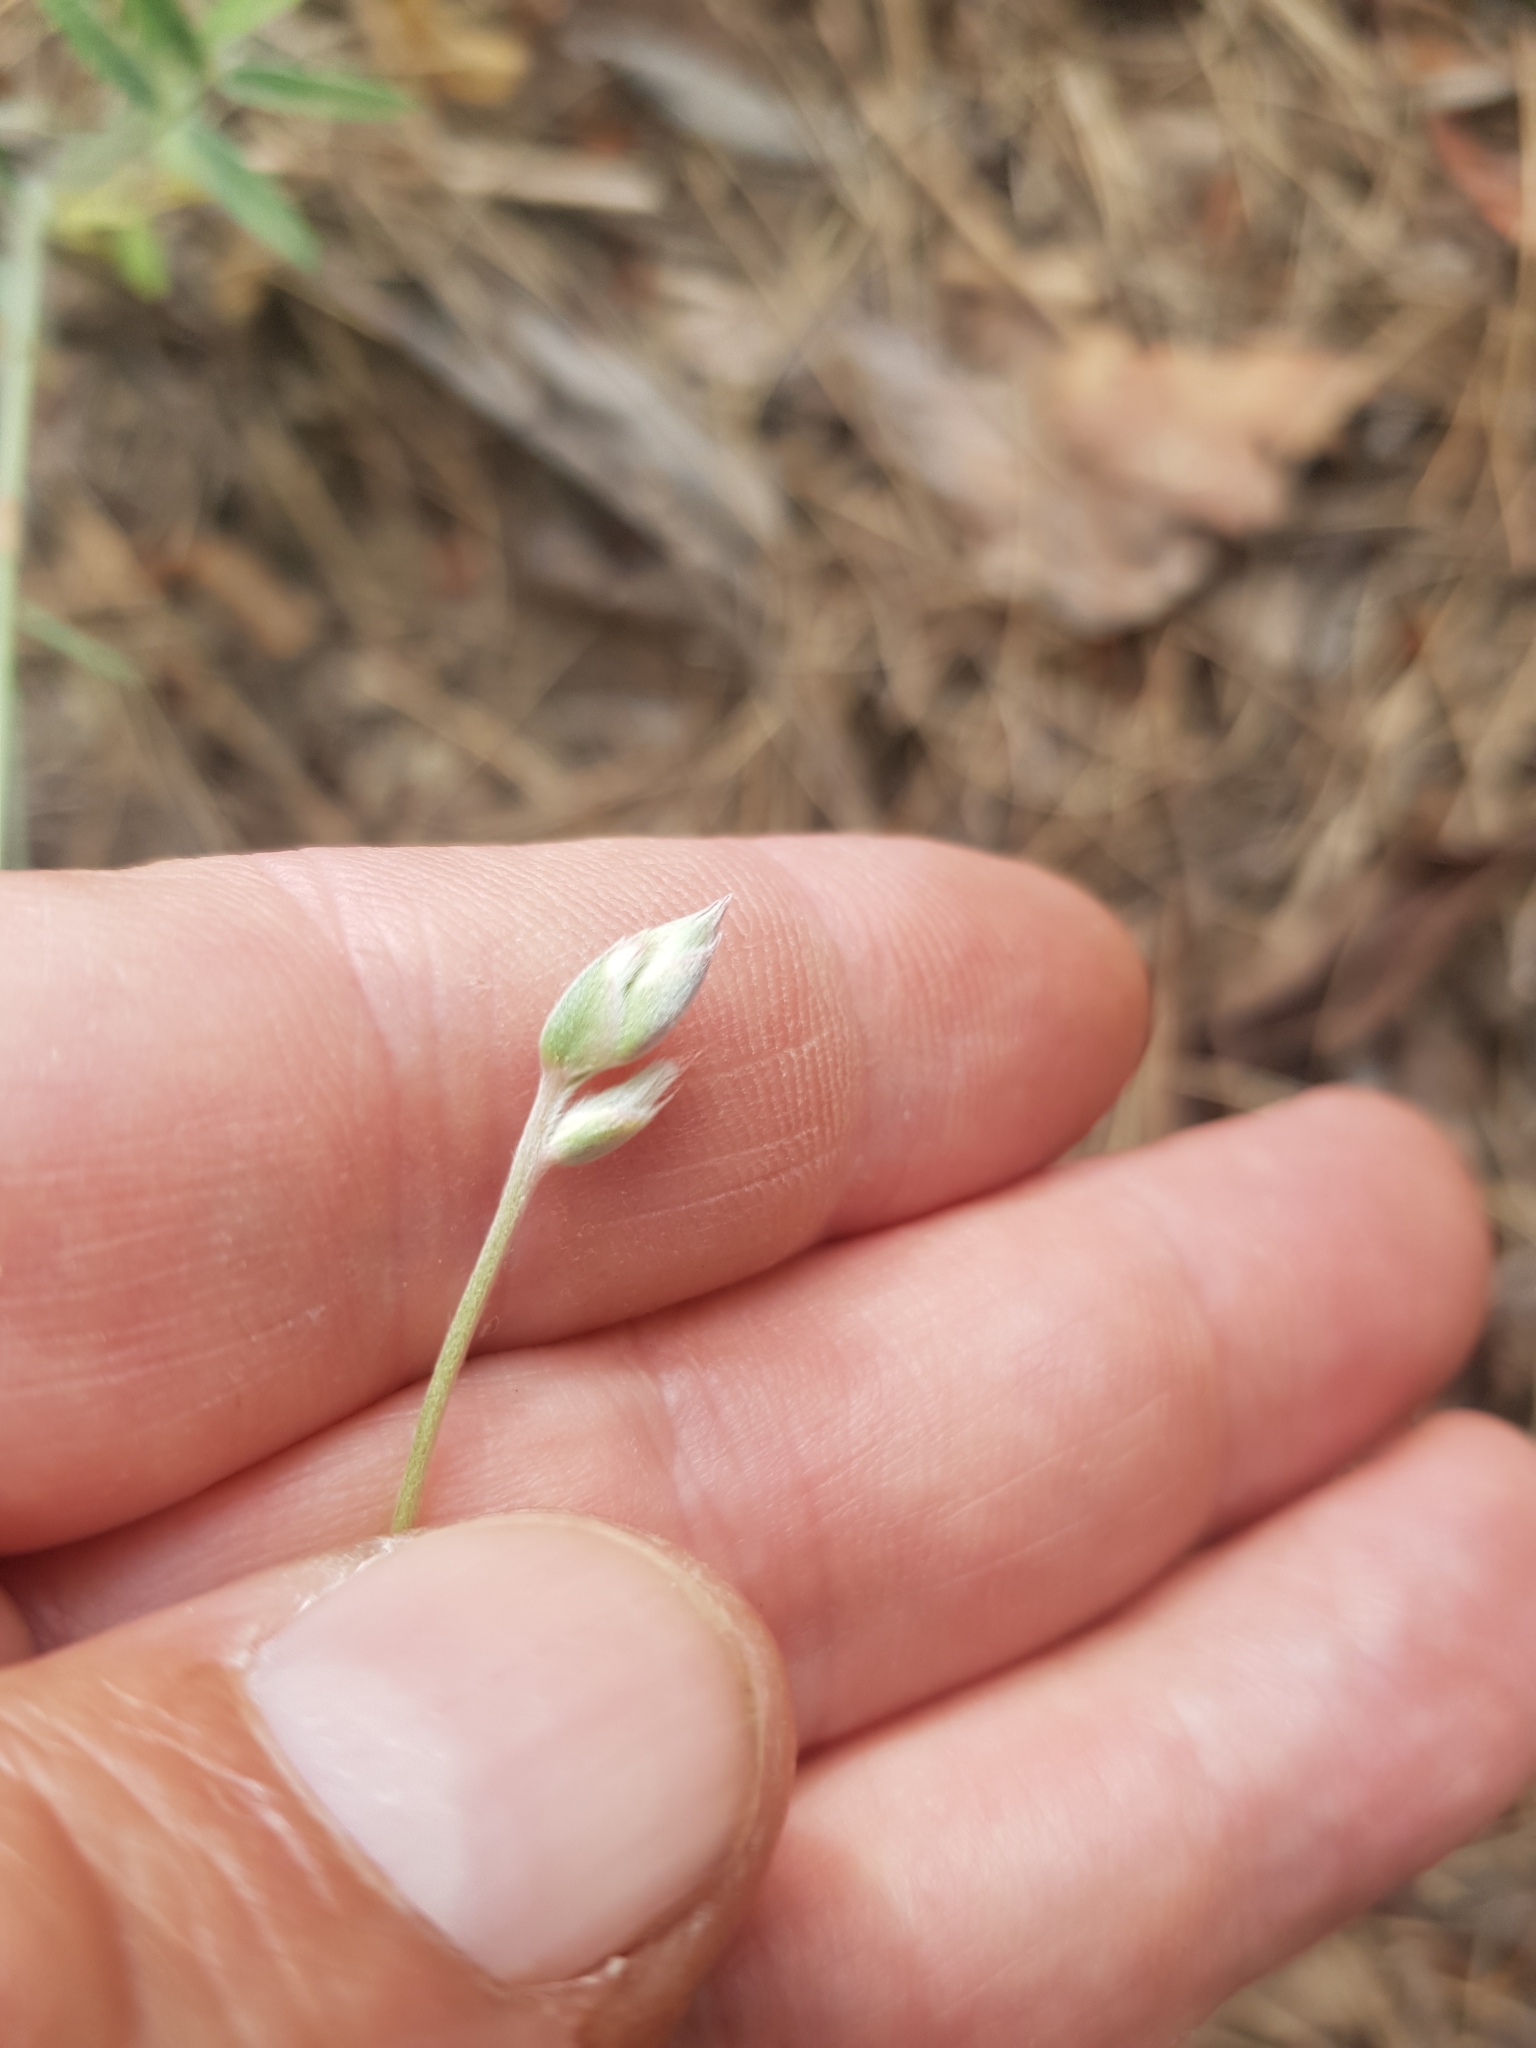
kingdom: Plantae
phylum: Tracheophyta
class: Magnoliopsida
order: Fabales
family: Fabaceae
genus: Ebenus
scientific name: Ebenus pinnata
